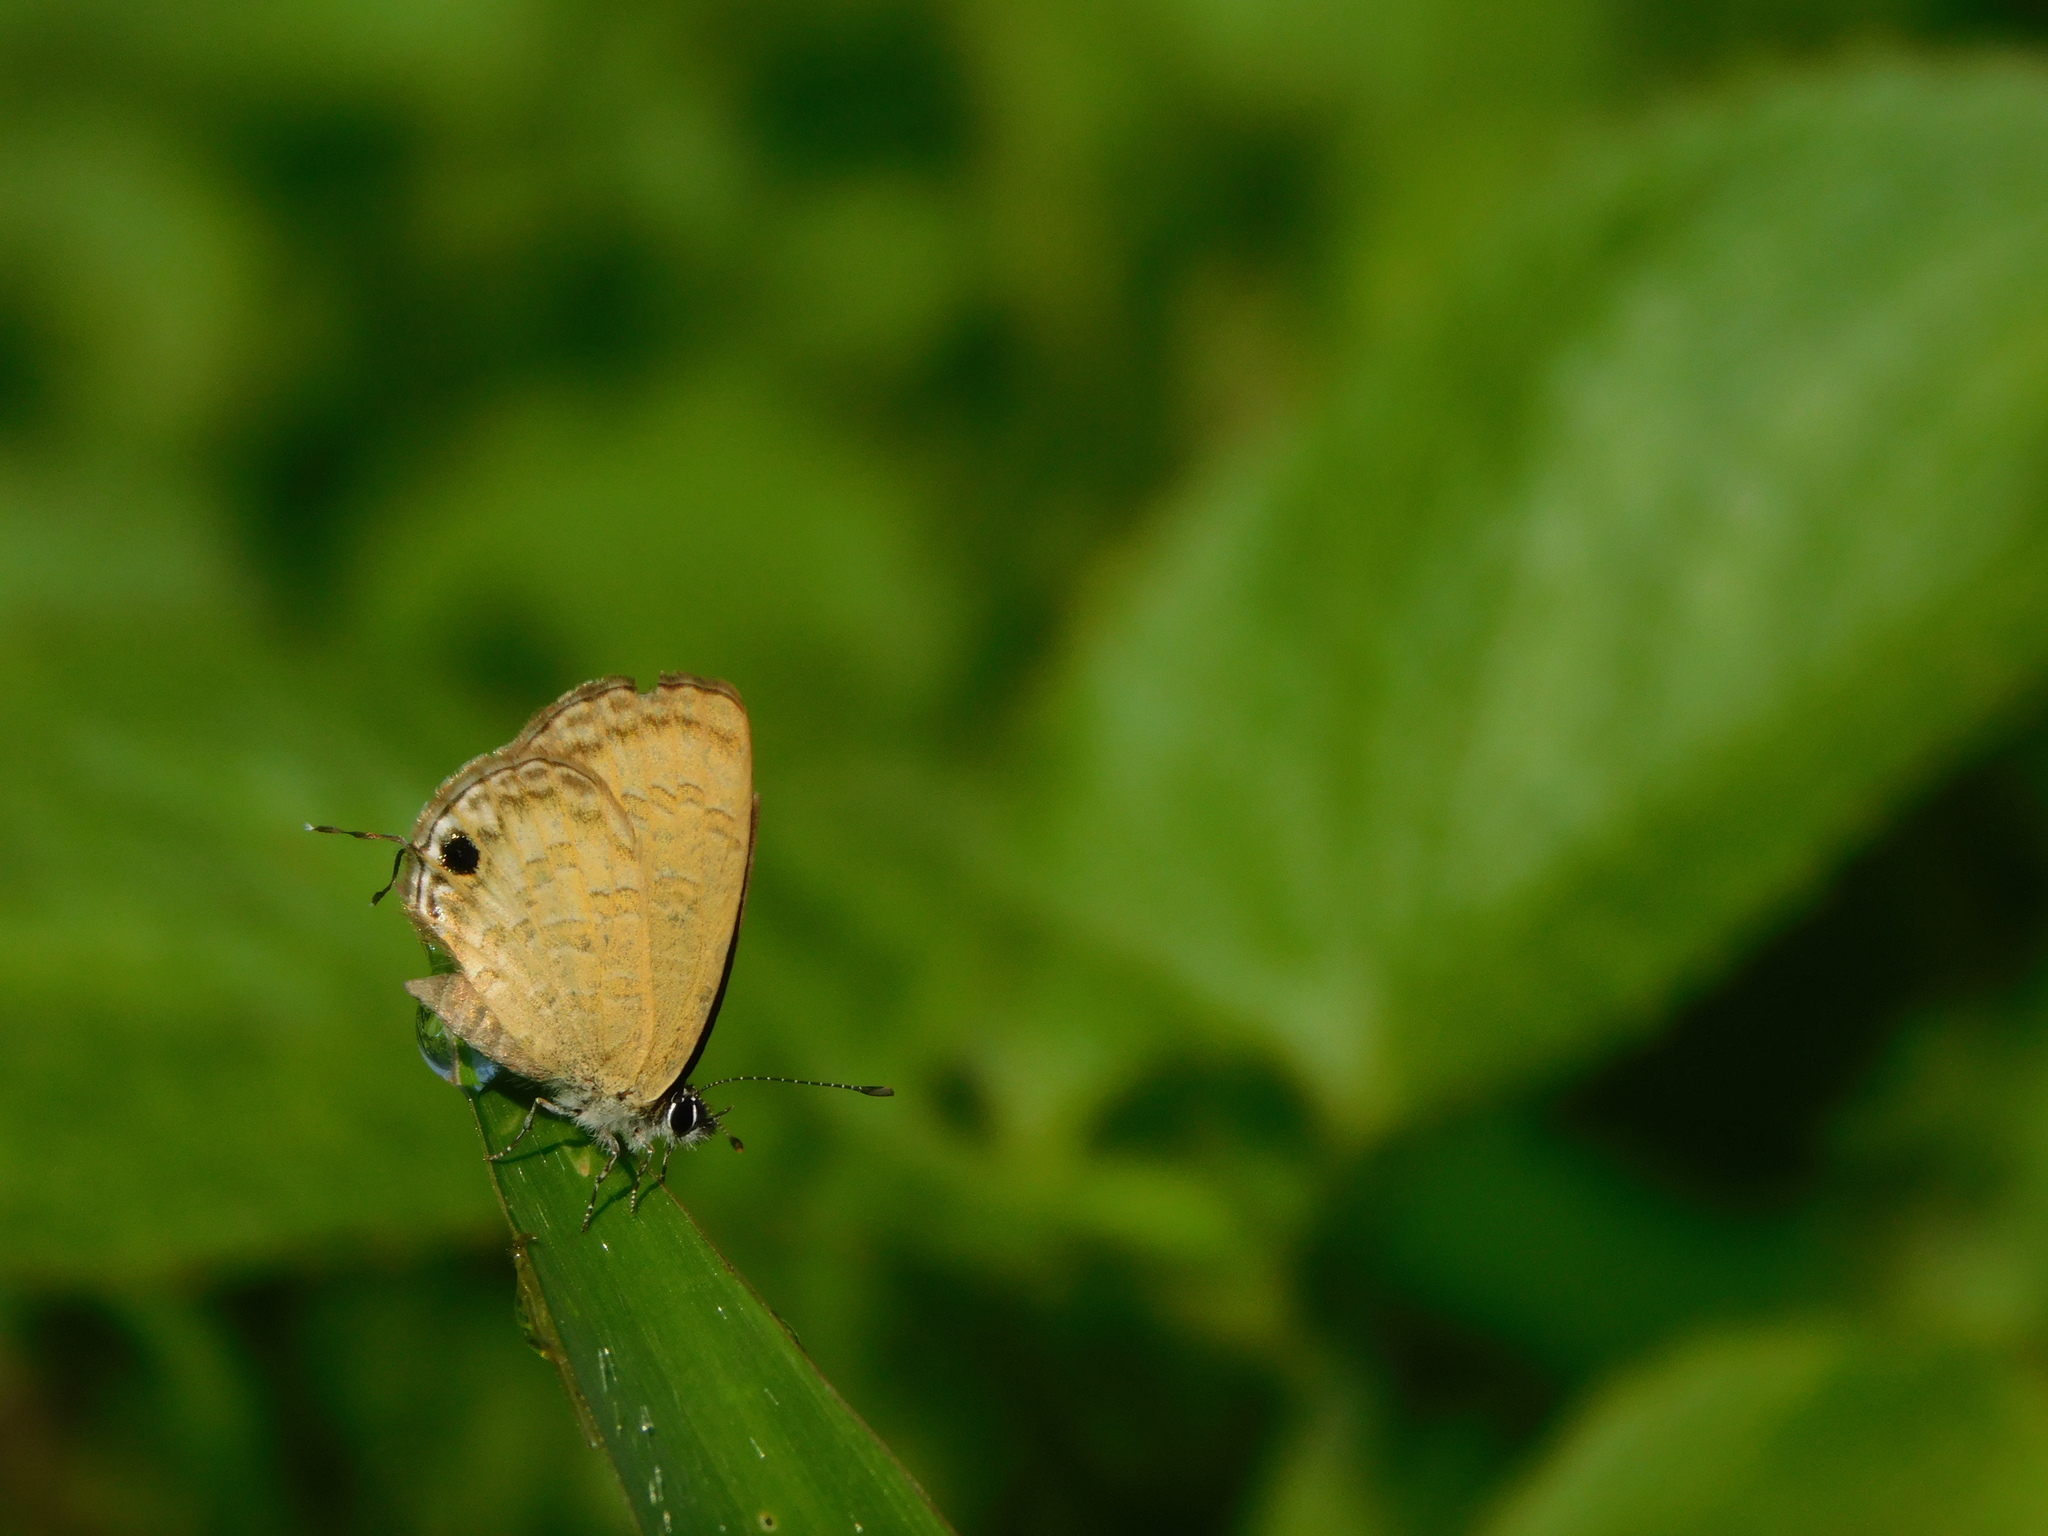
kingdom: Animalia
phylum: Arthropoda
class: Insecta
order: Lepidoptera
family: Lycaenidae
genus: Prosotas
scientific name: Prosotas nora
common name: Common line blue
